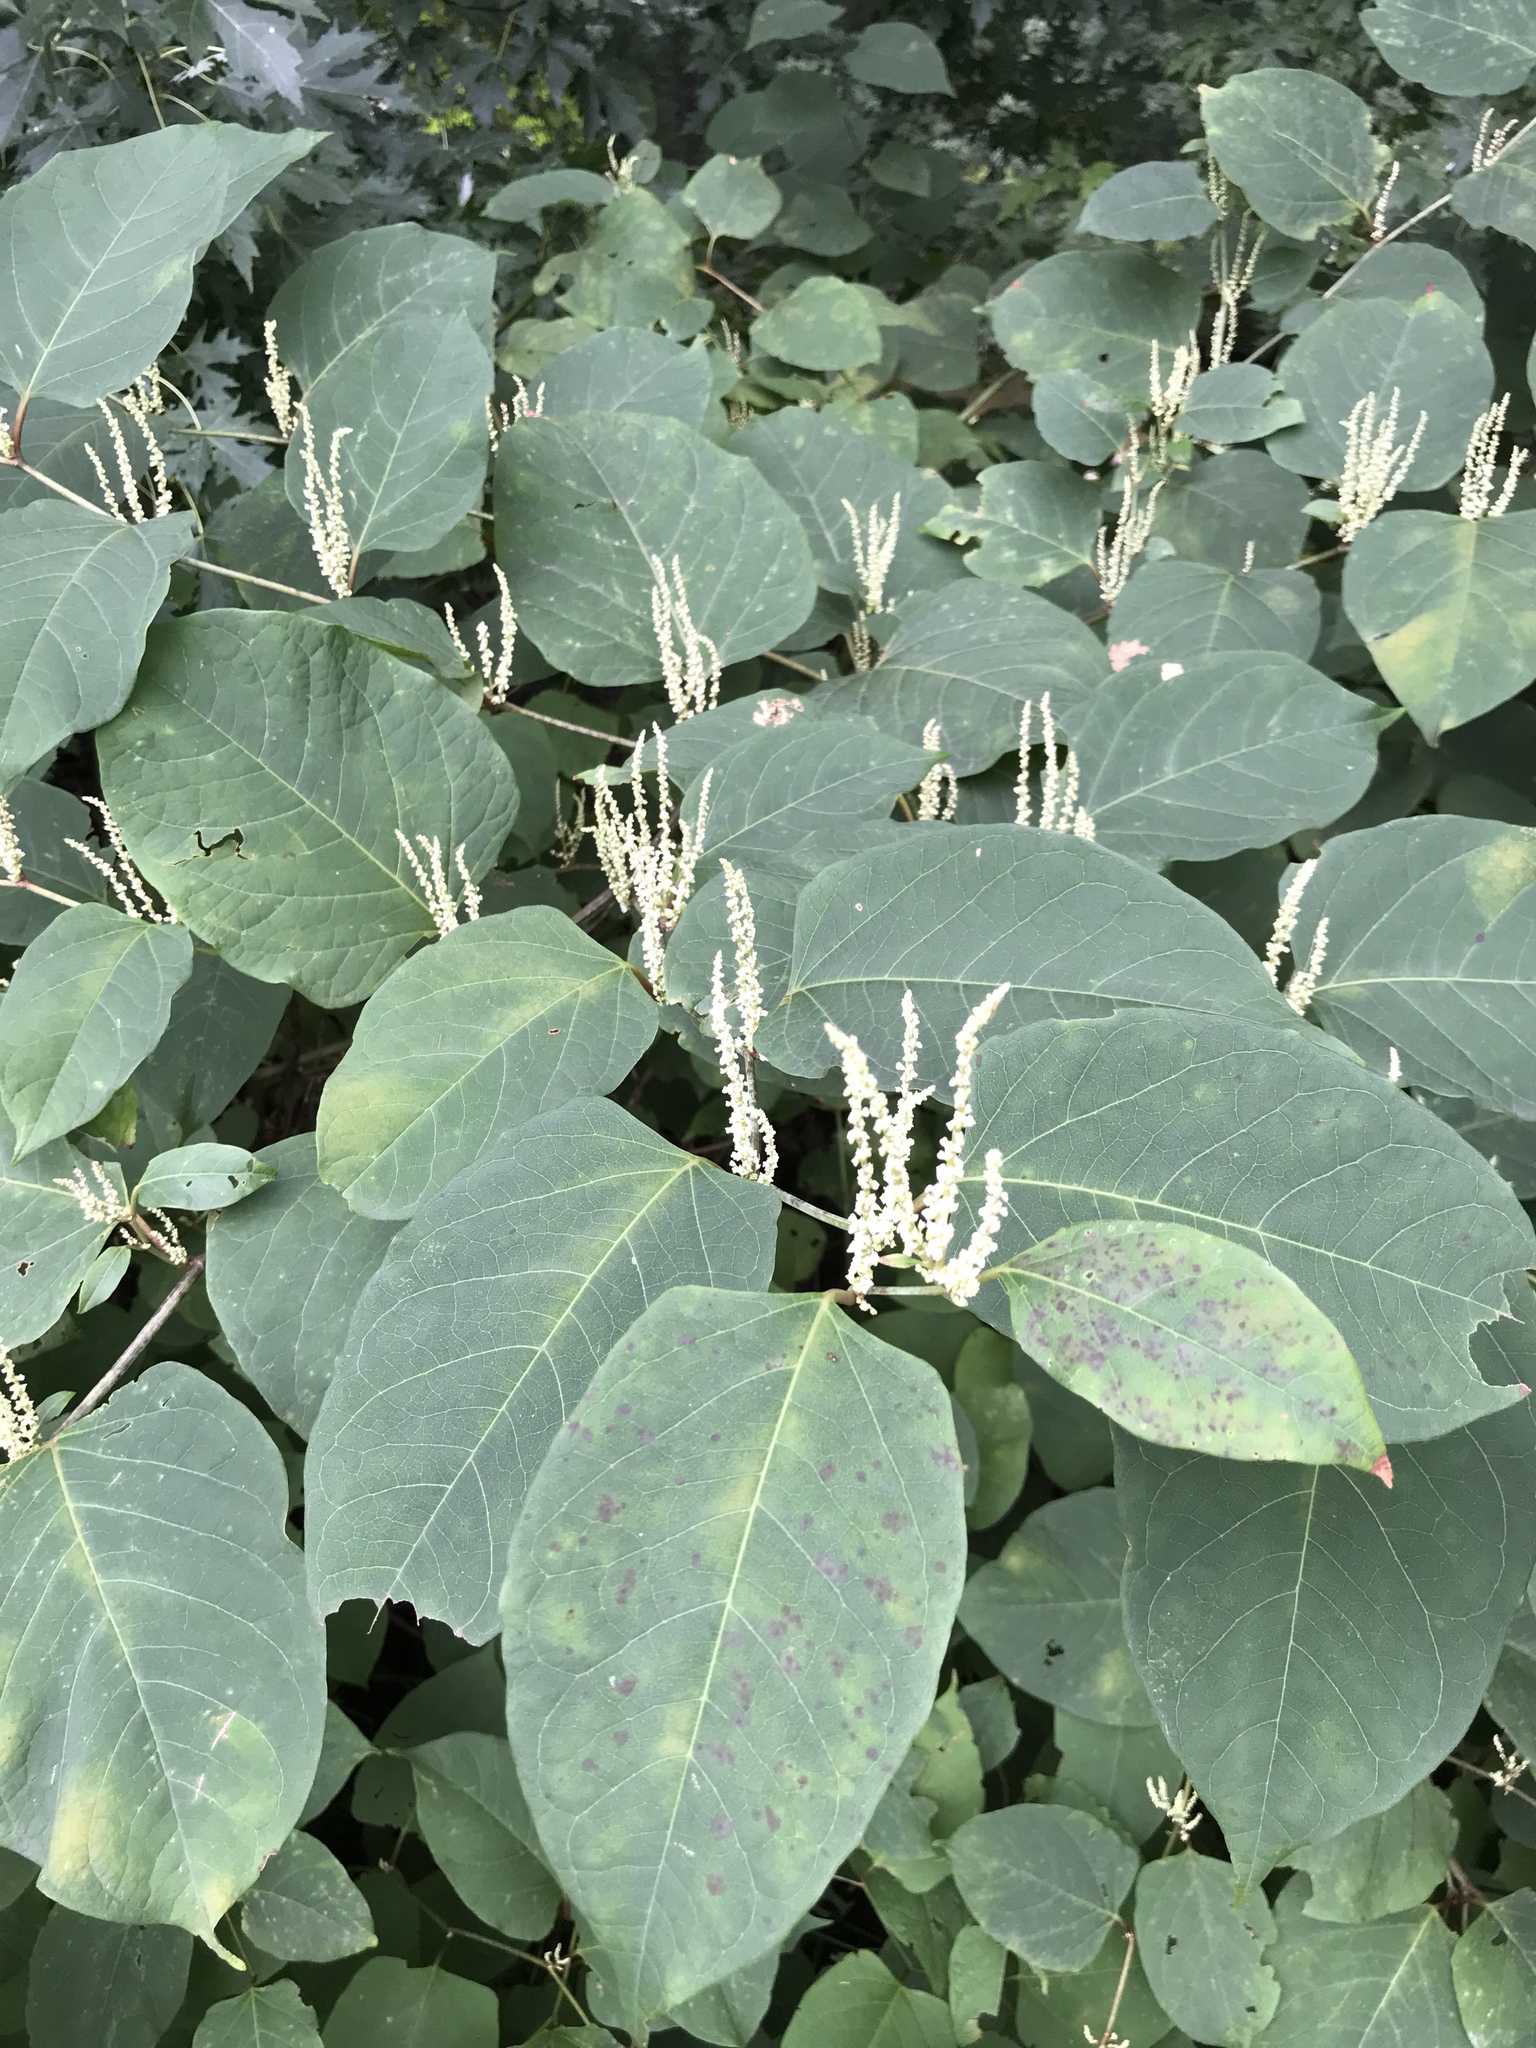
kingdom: Plantae
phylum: Tracheophyta
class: Magnoliopsida
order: Caryophyllales
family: Polygonaceae
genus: Reynoutria
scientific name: Reynoutria japonica
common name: Japanese knotweed
